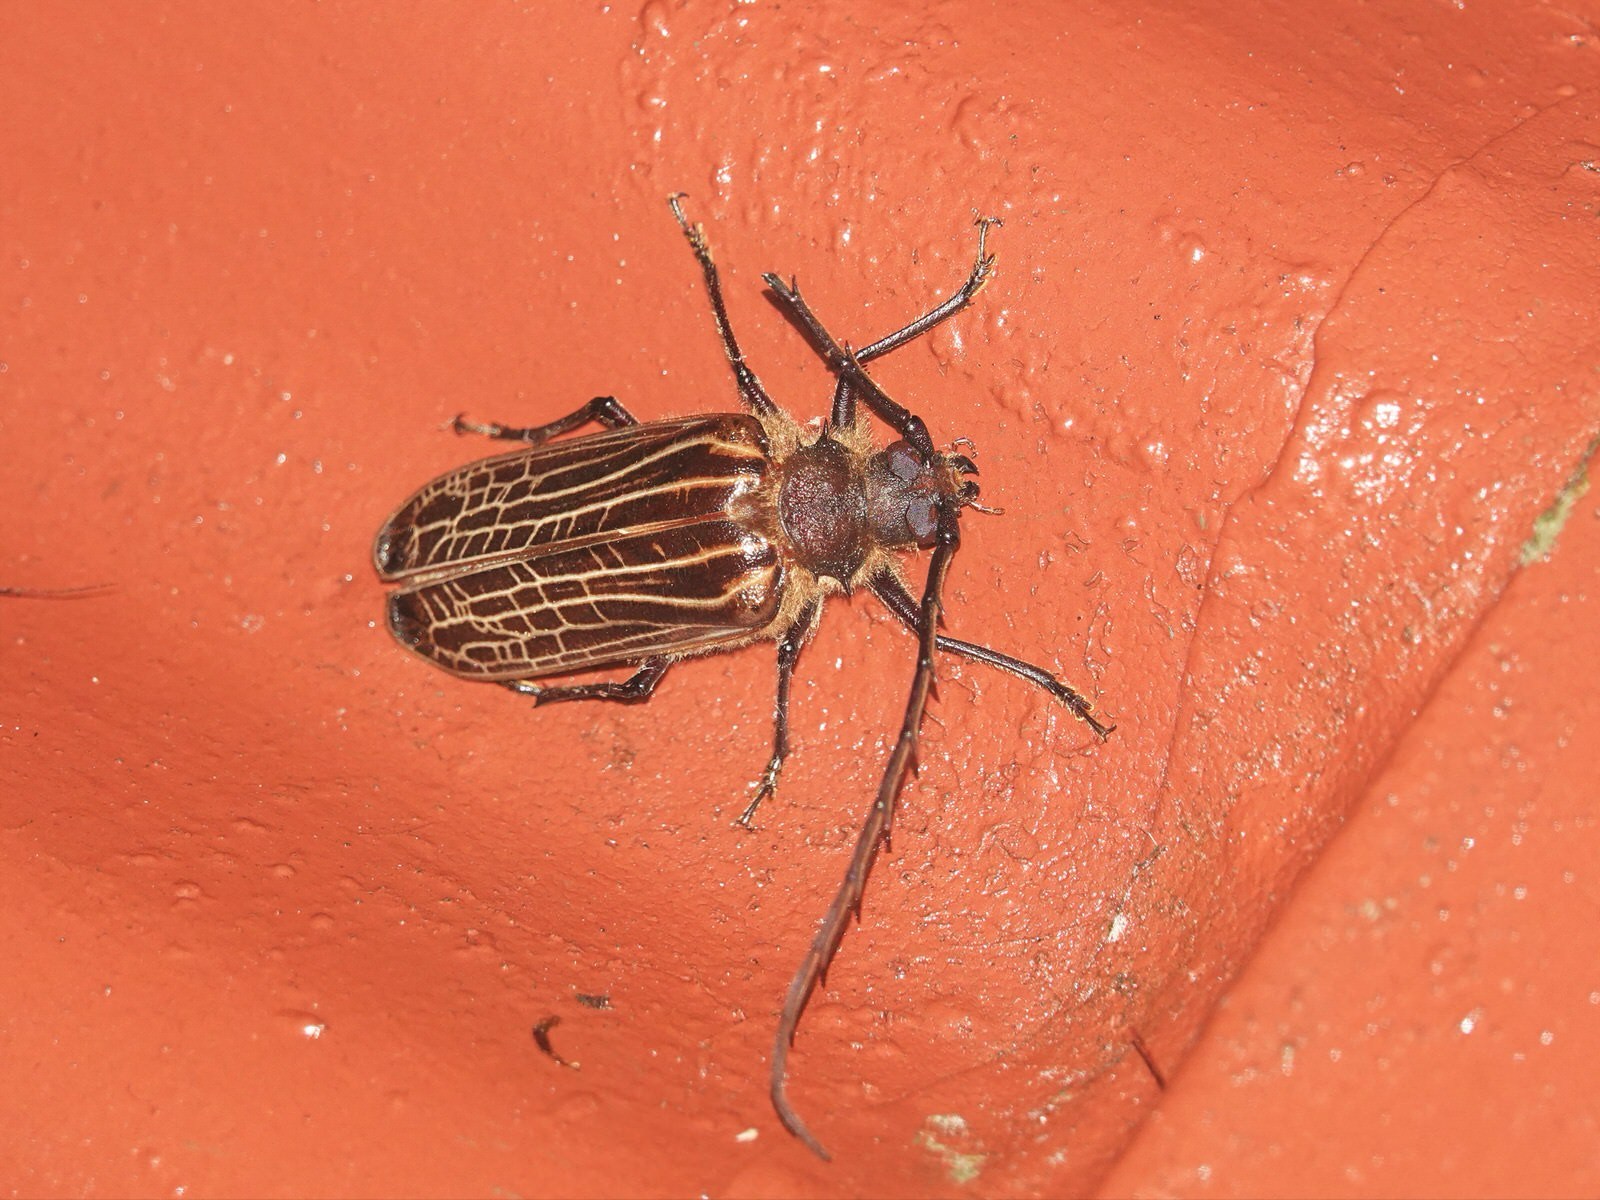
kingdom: Animalia
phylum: Arthropoda
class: Insecta
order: Coleoptera
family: Cerambycidae
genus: Prionoplus
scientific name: Prionoplus reticularis
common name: Huhu beetle
